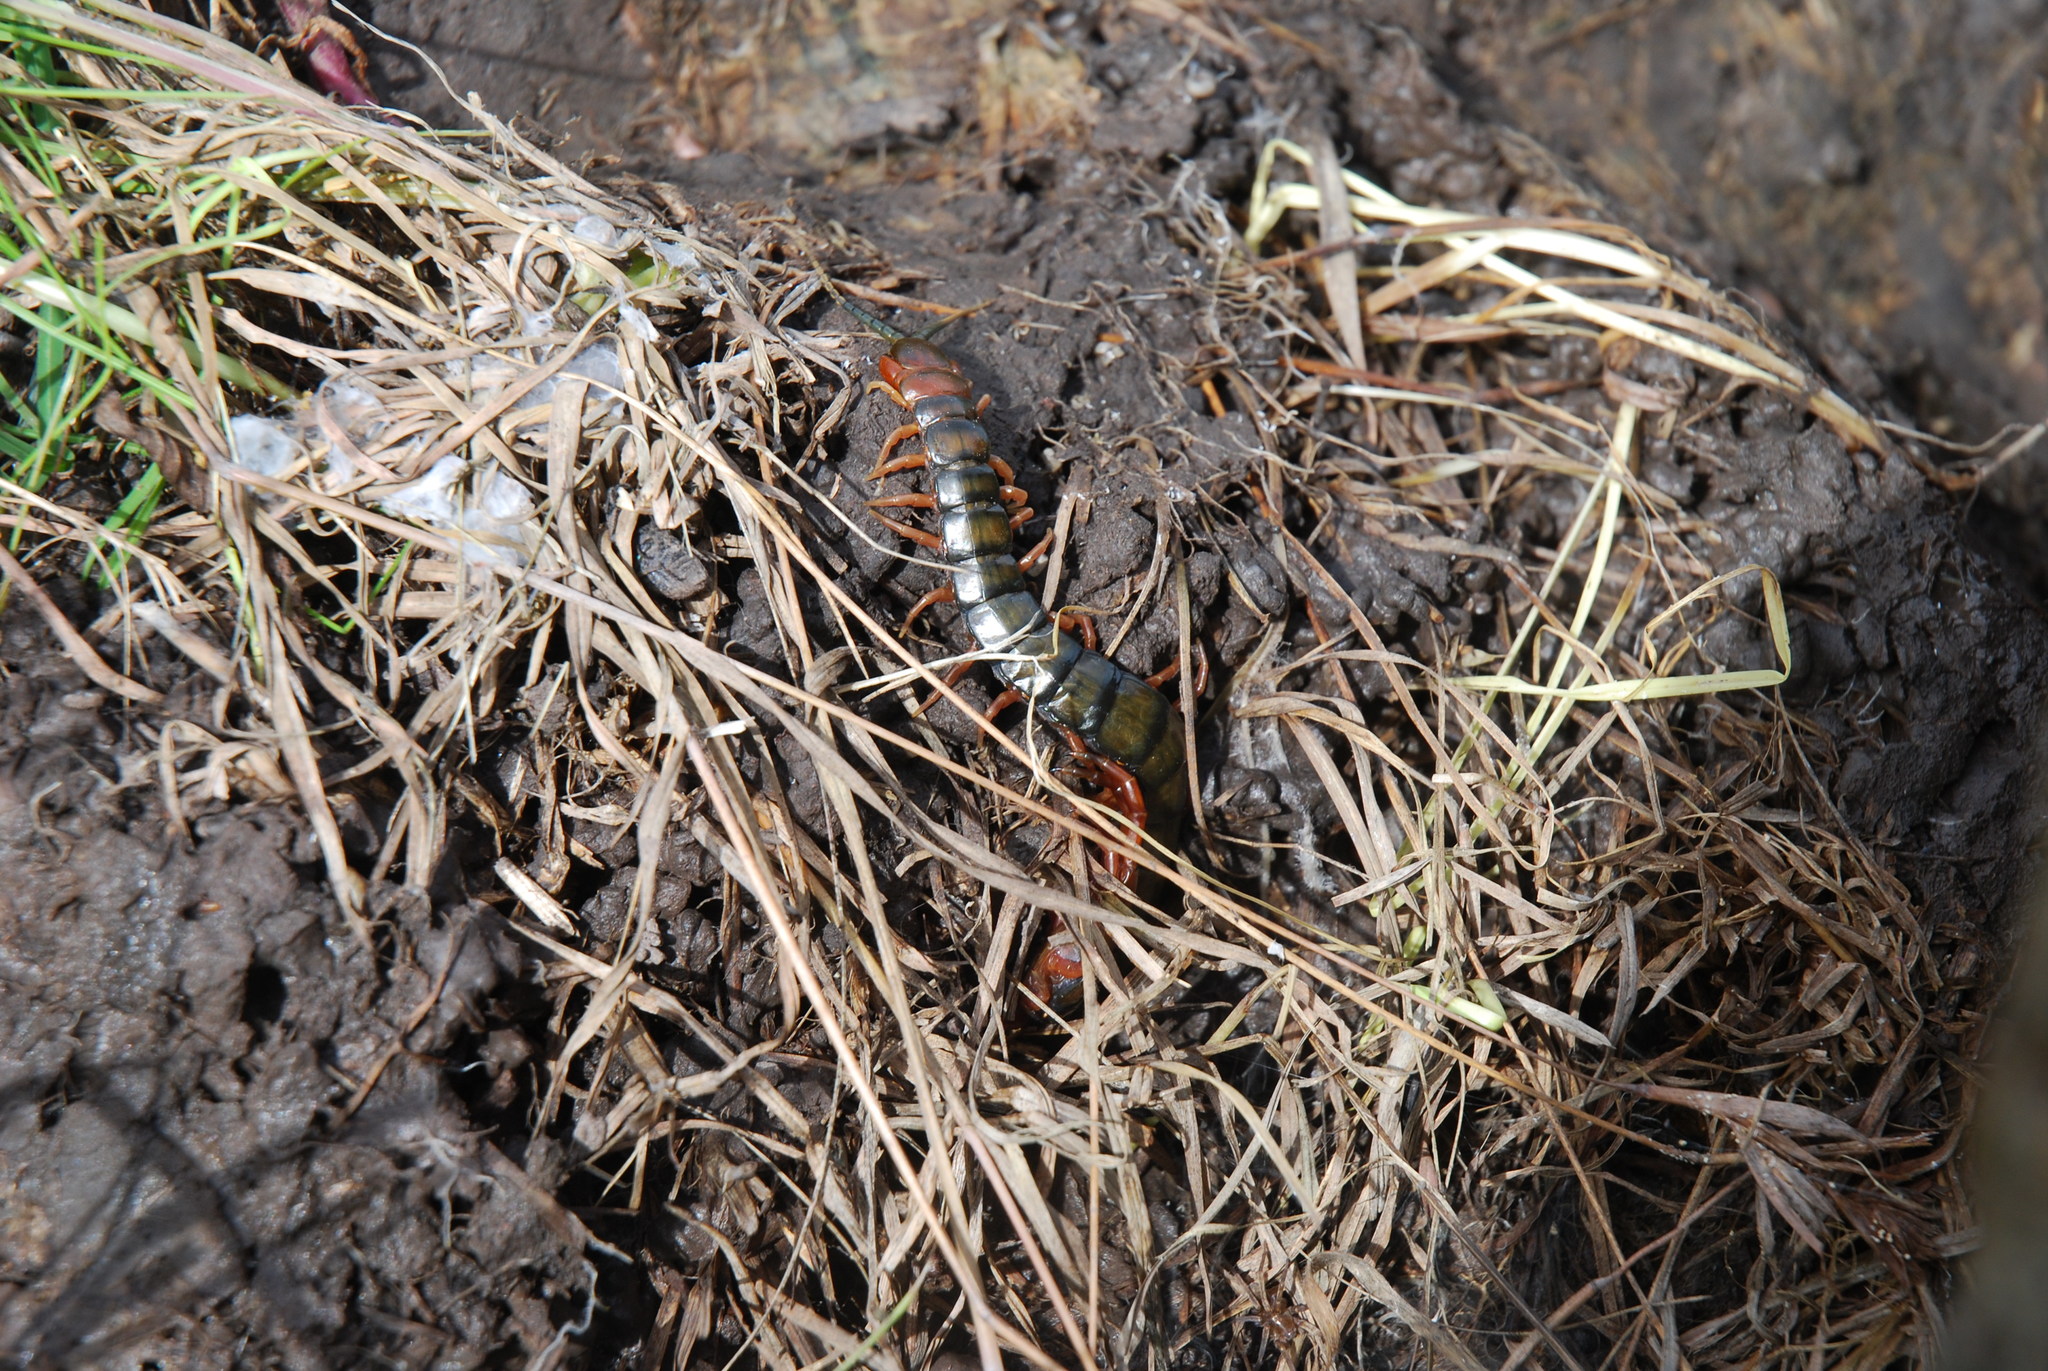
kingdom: Animalia
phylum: Arthropoda
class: Chilopoda
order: Scolopendromorpha
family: Scolopendridae
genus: Cormocephalus
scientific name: Cormocephalus aurantiipes
